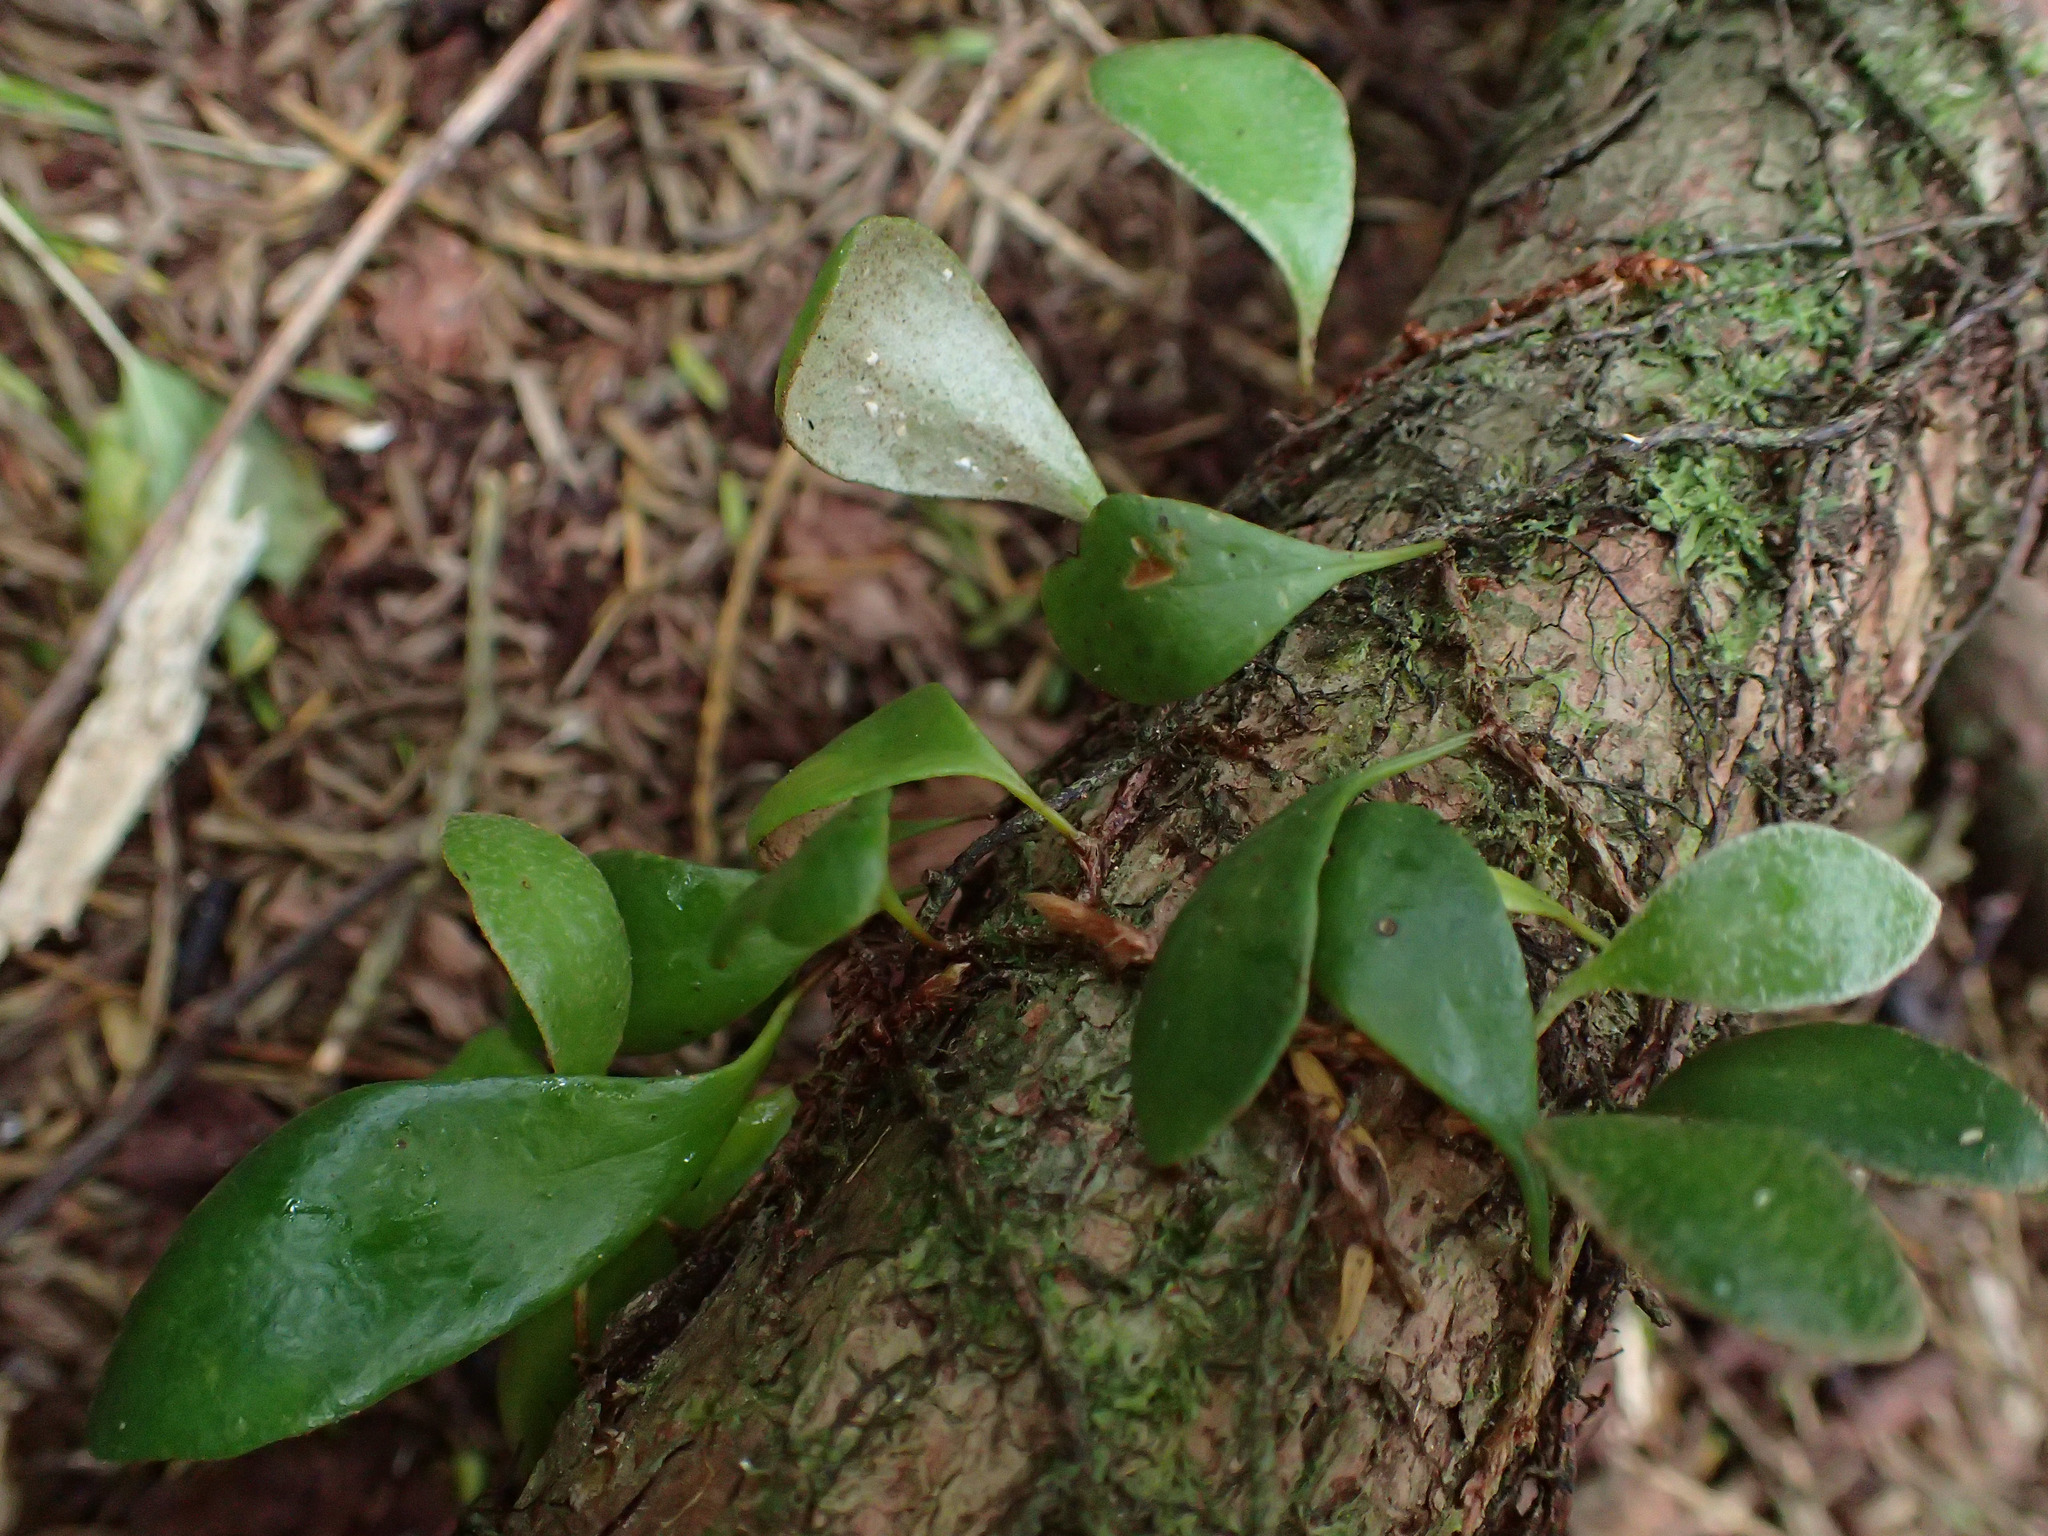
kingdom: Plantae
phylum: Tracheophyta
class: Polypodiopsida
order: Polypodiales
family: Polypodiaceae
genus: Pyrrosia
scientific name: Pyrrosia eleagnifolia
